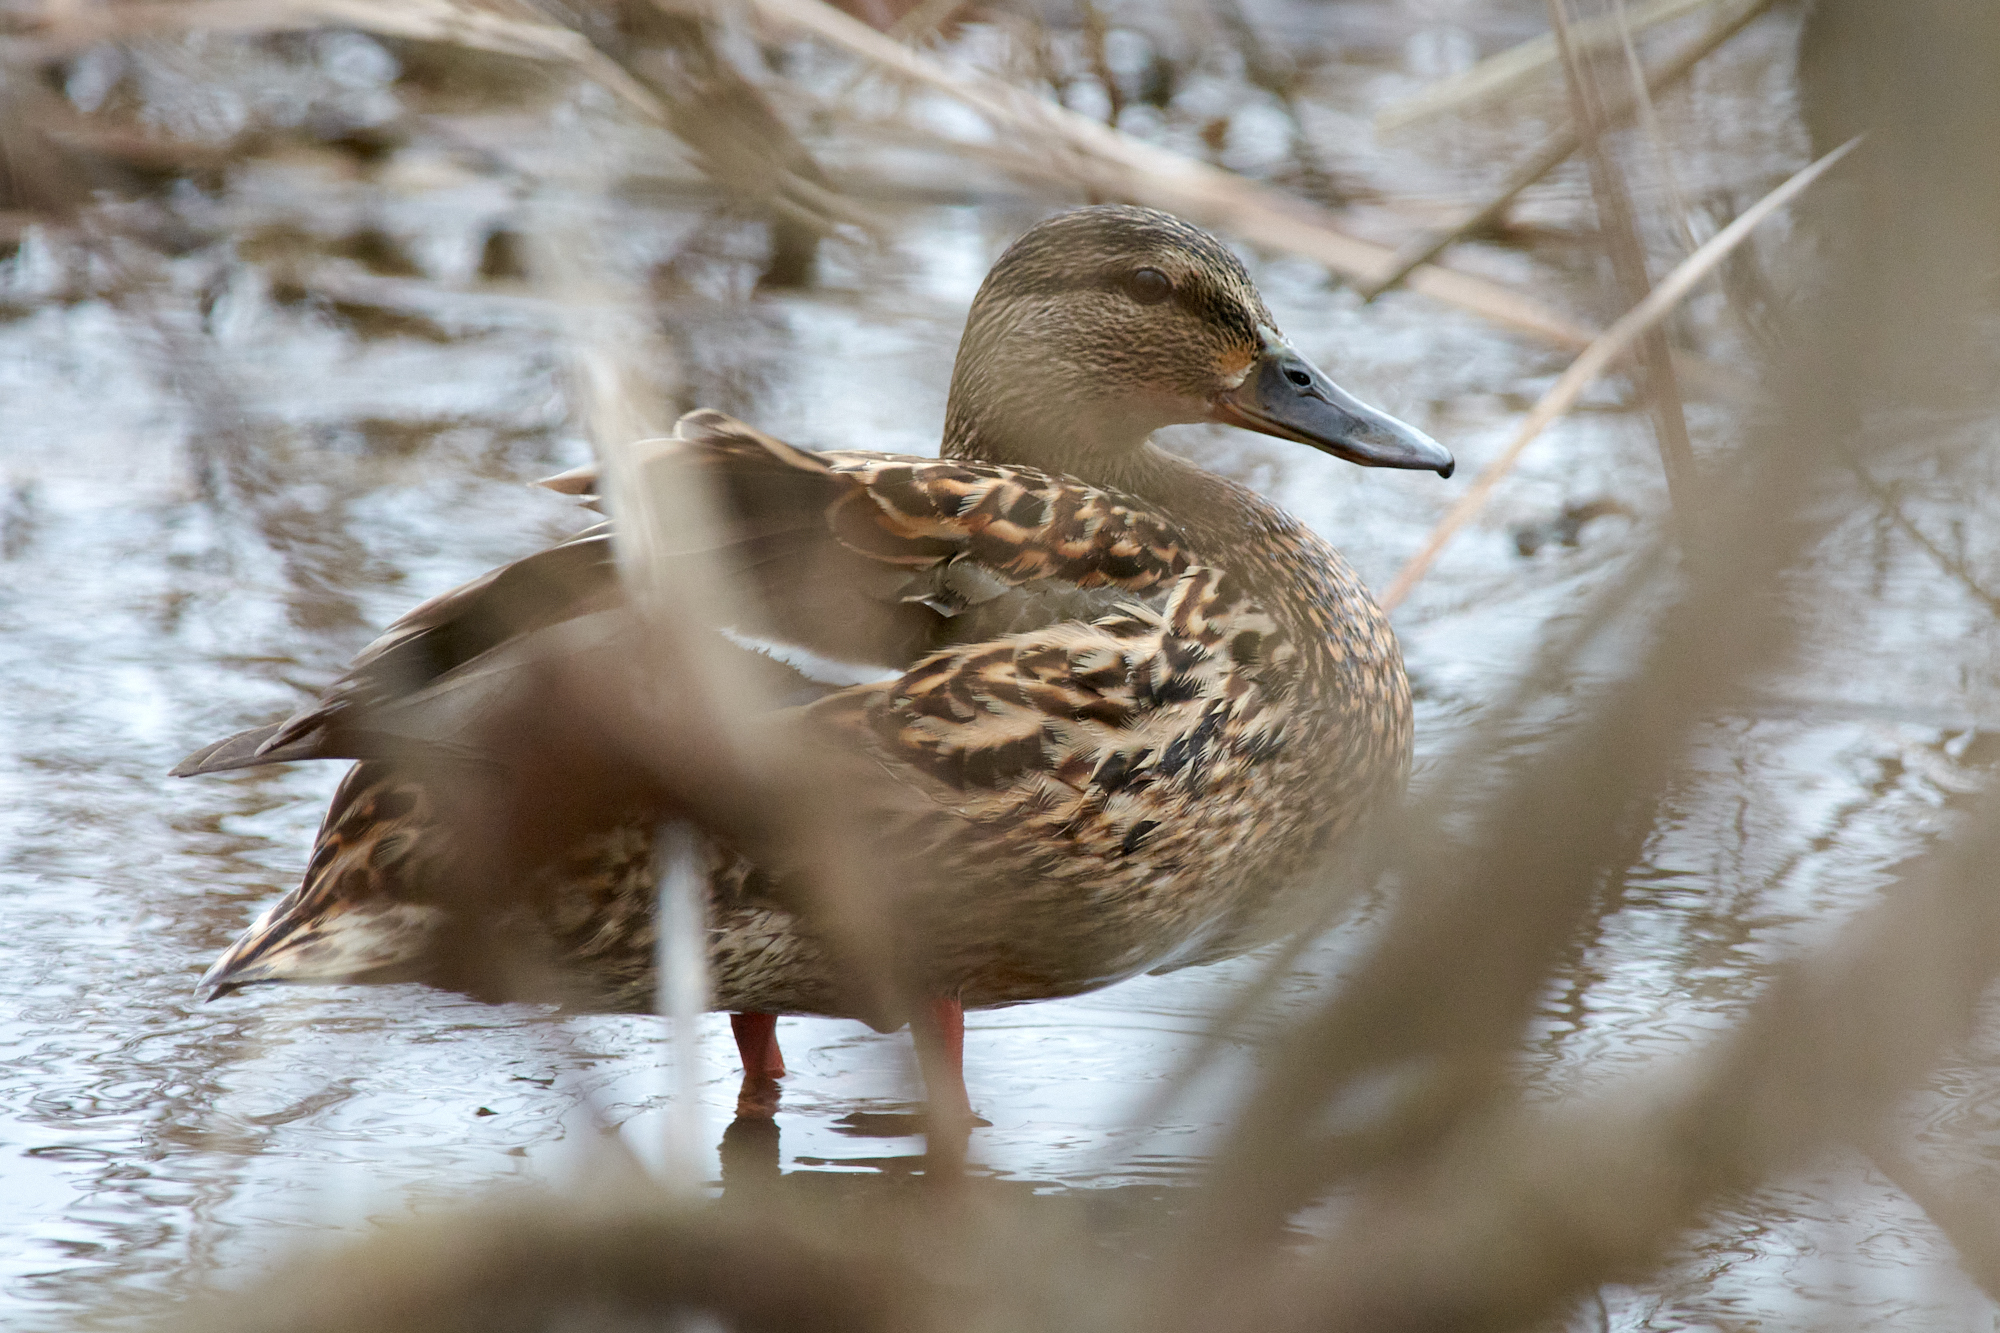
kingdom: Animalia
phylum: Chordata
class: Aves
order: Anseriformes
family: Anatidae
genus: Anas
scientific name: Anas platyrhynchos
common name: Mallard
